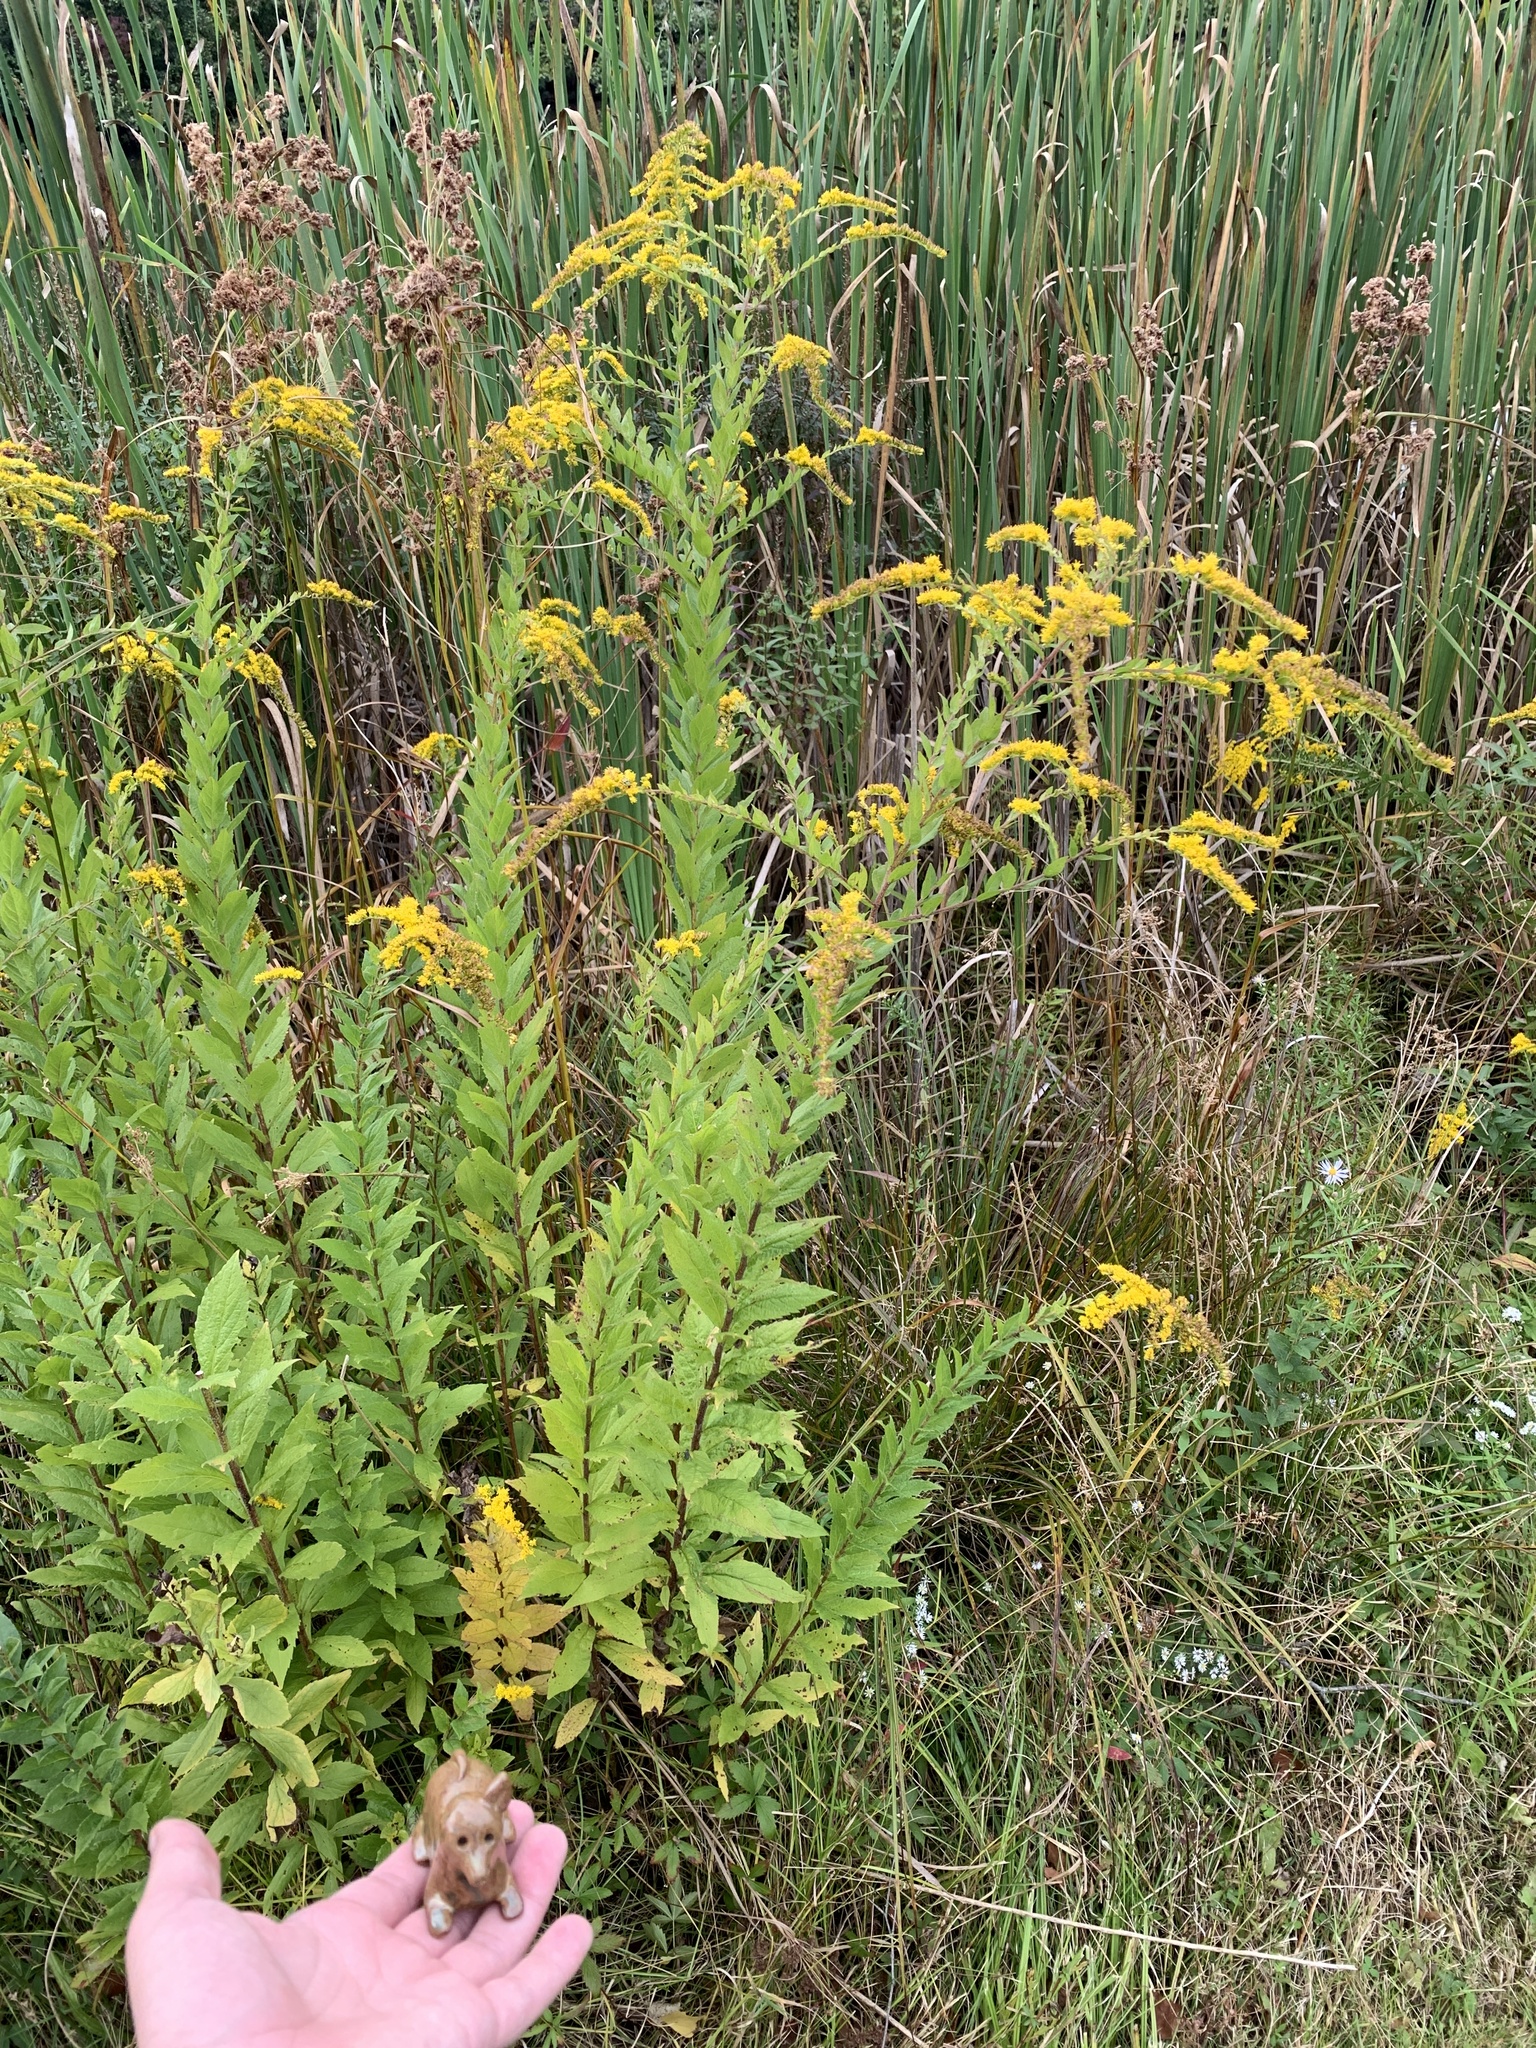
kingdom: Plantae
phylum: Tracheophyta
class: Magnoliopsida
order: Asterales
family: Asteraceae
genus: Solidago
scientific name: Solidago rugosa
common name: Rough-stemmed goldenrod
